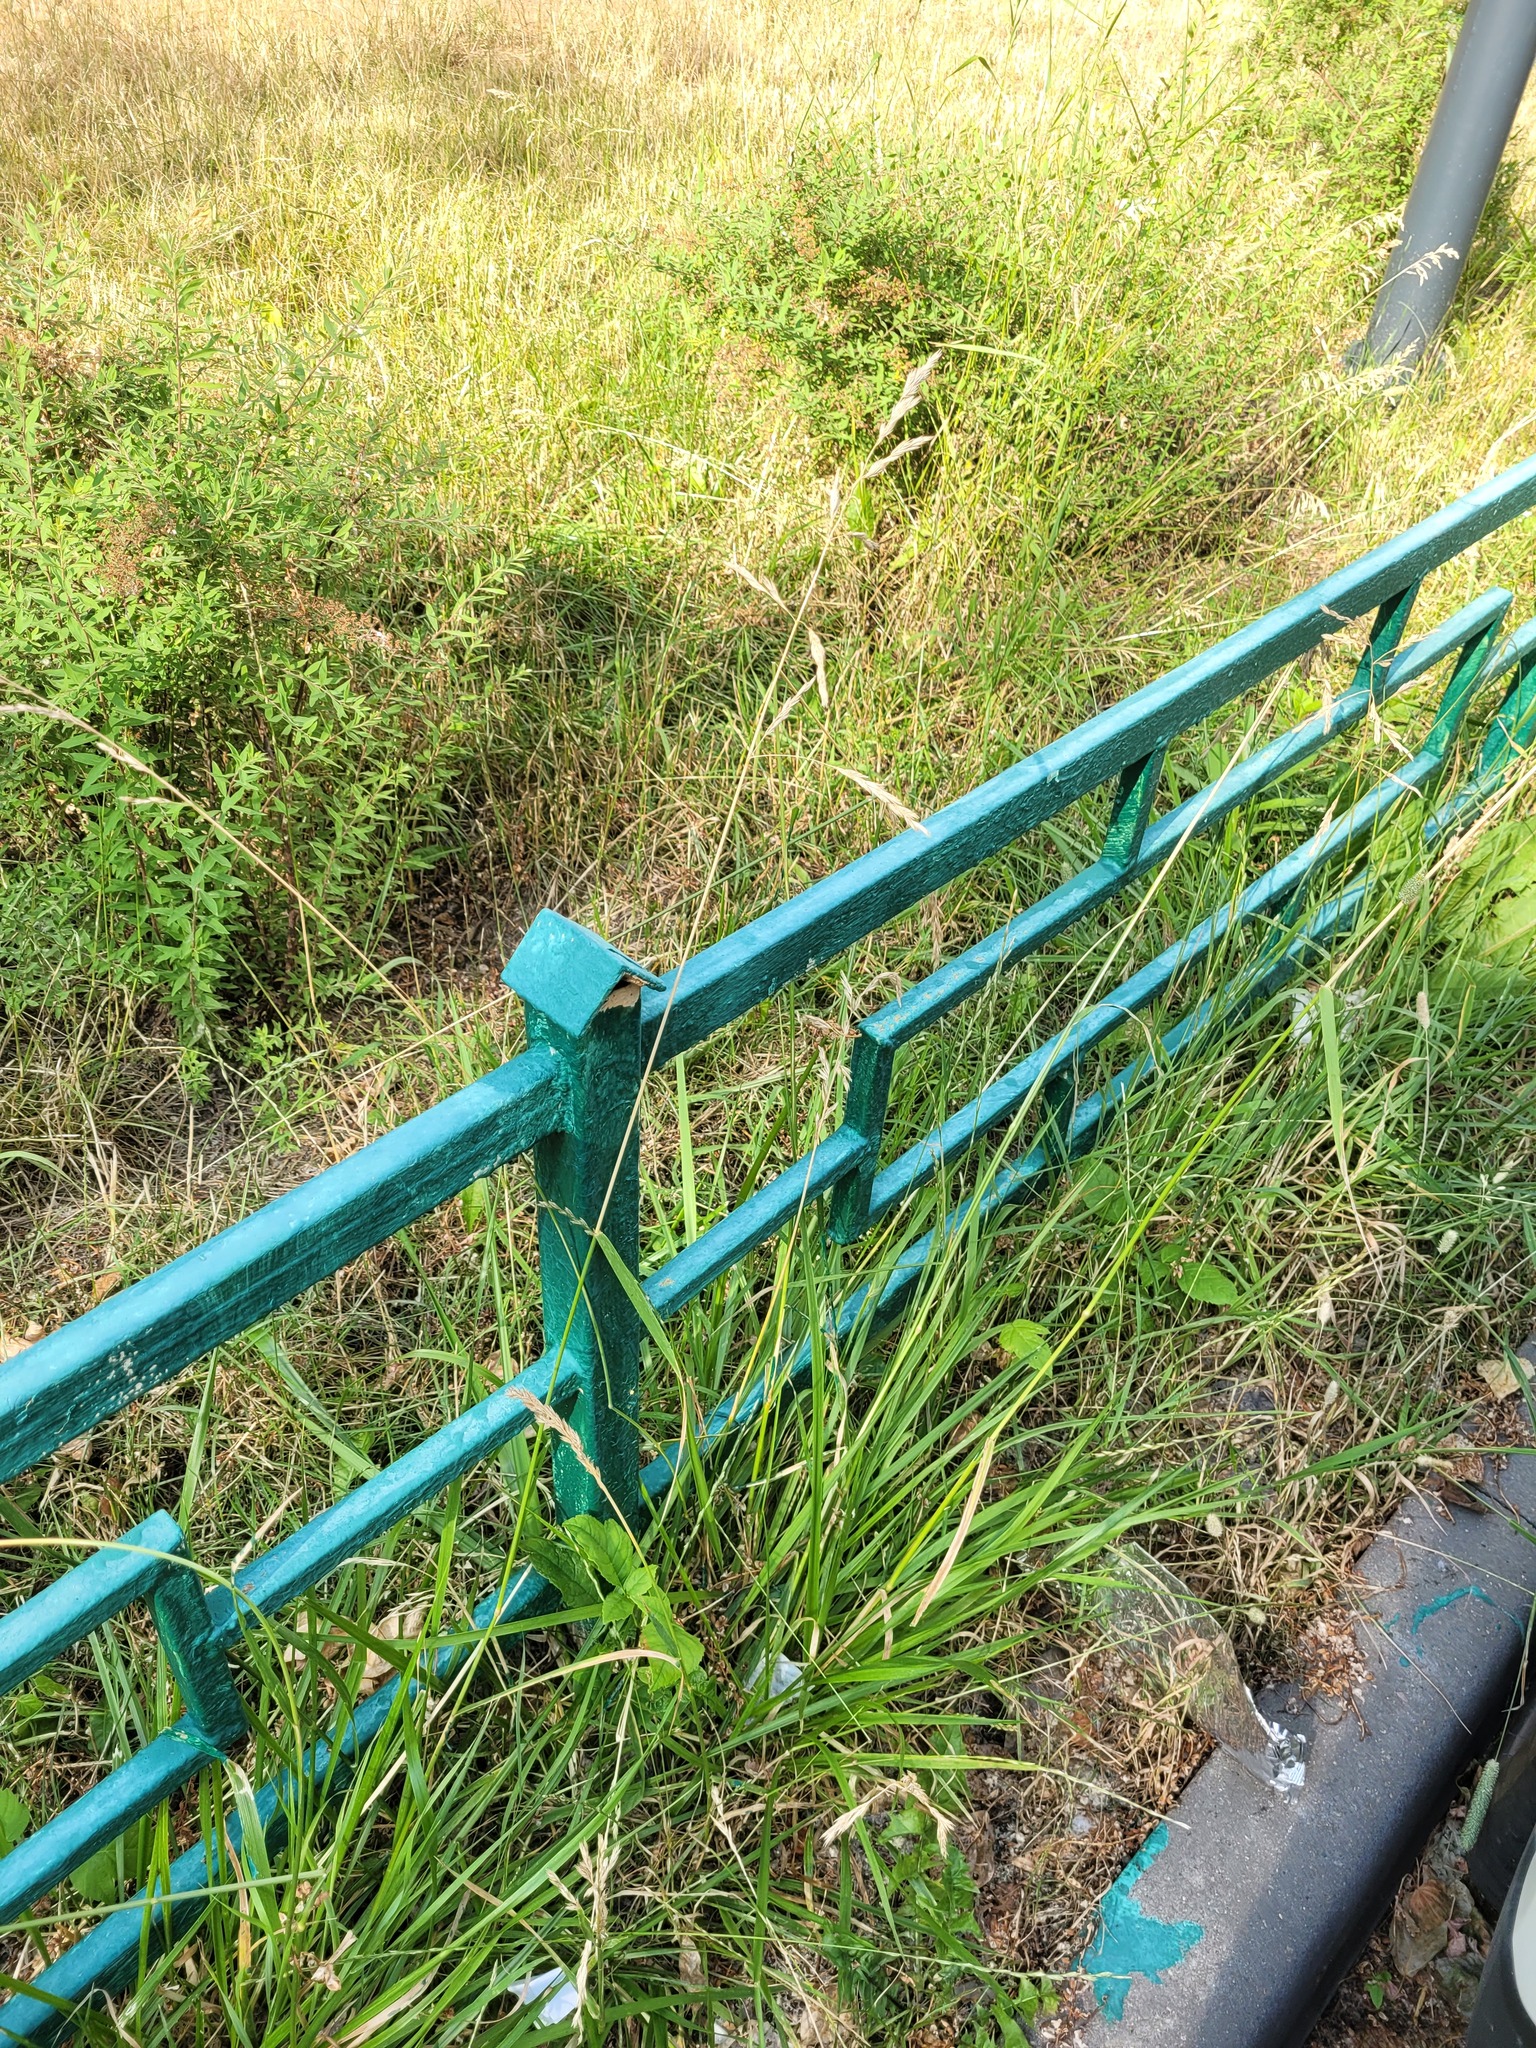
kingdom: Plantae
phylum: Tracheophyta
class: Liliopsida
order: Poales
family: Poaceae
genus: Lolium
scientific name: Lolium arundinaceum
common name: Reed fescue
